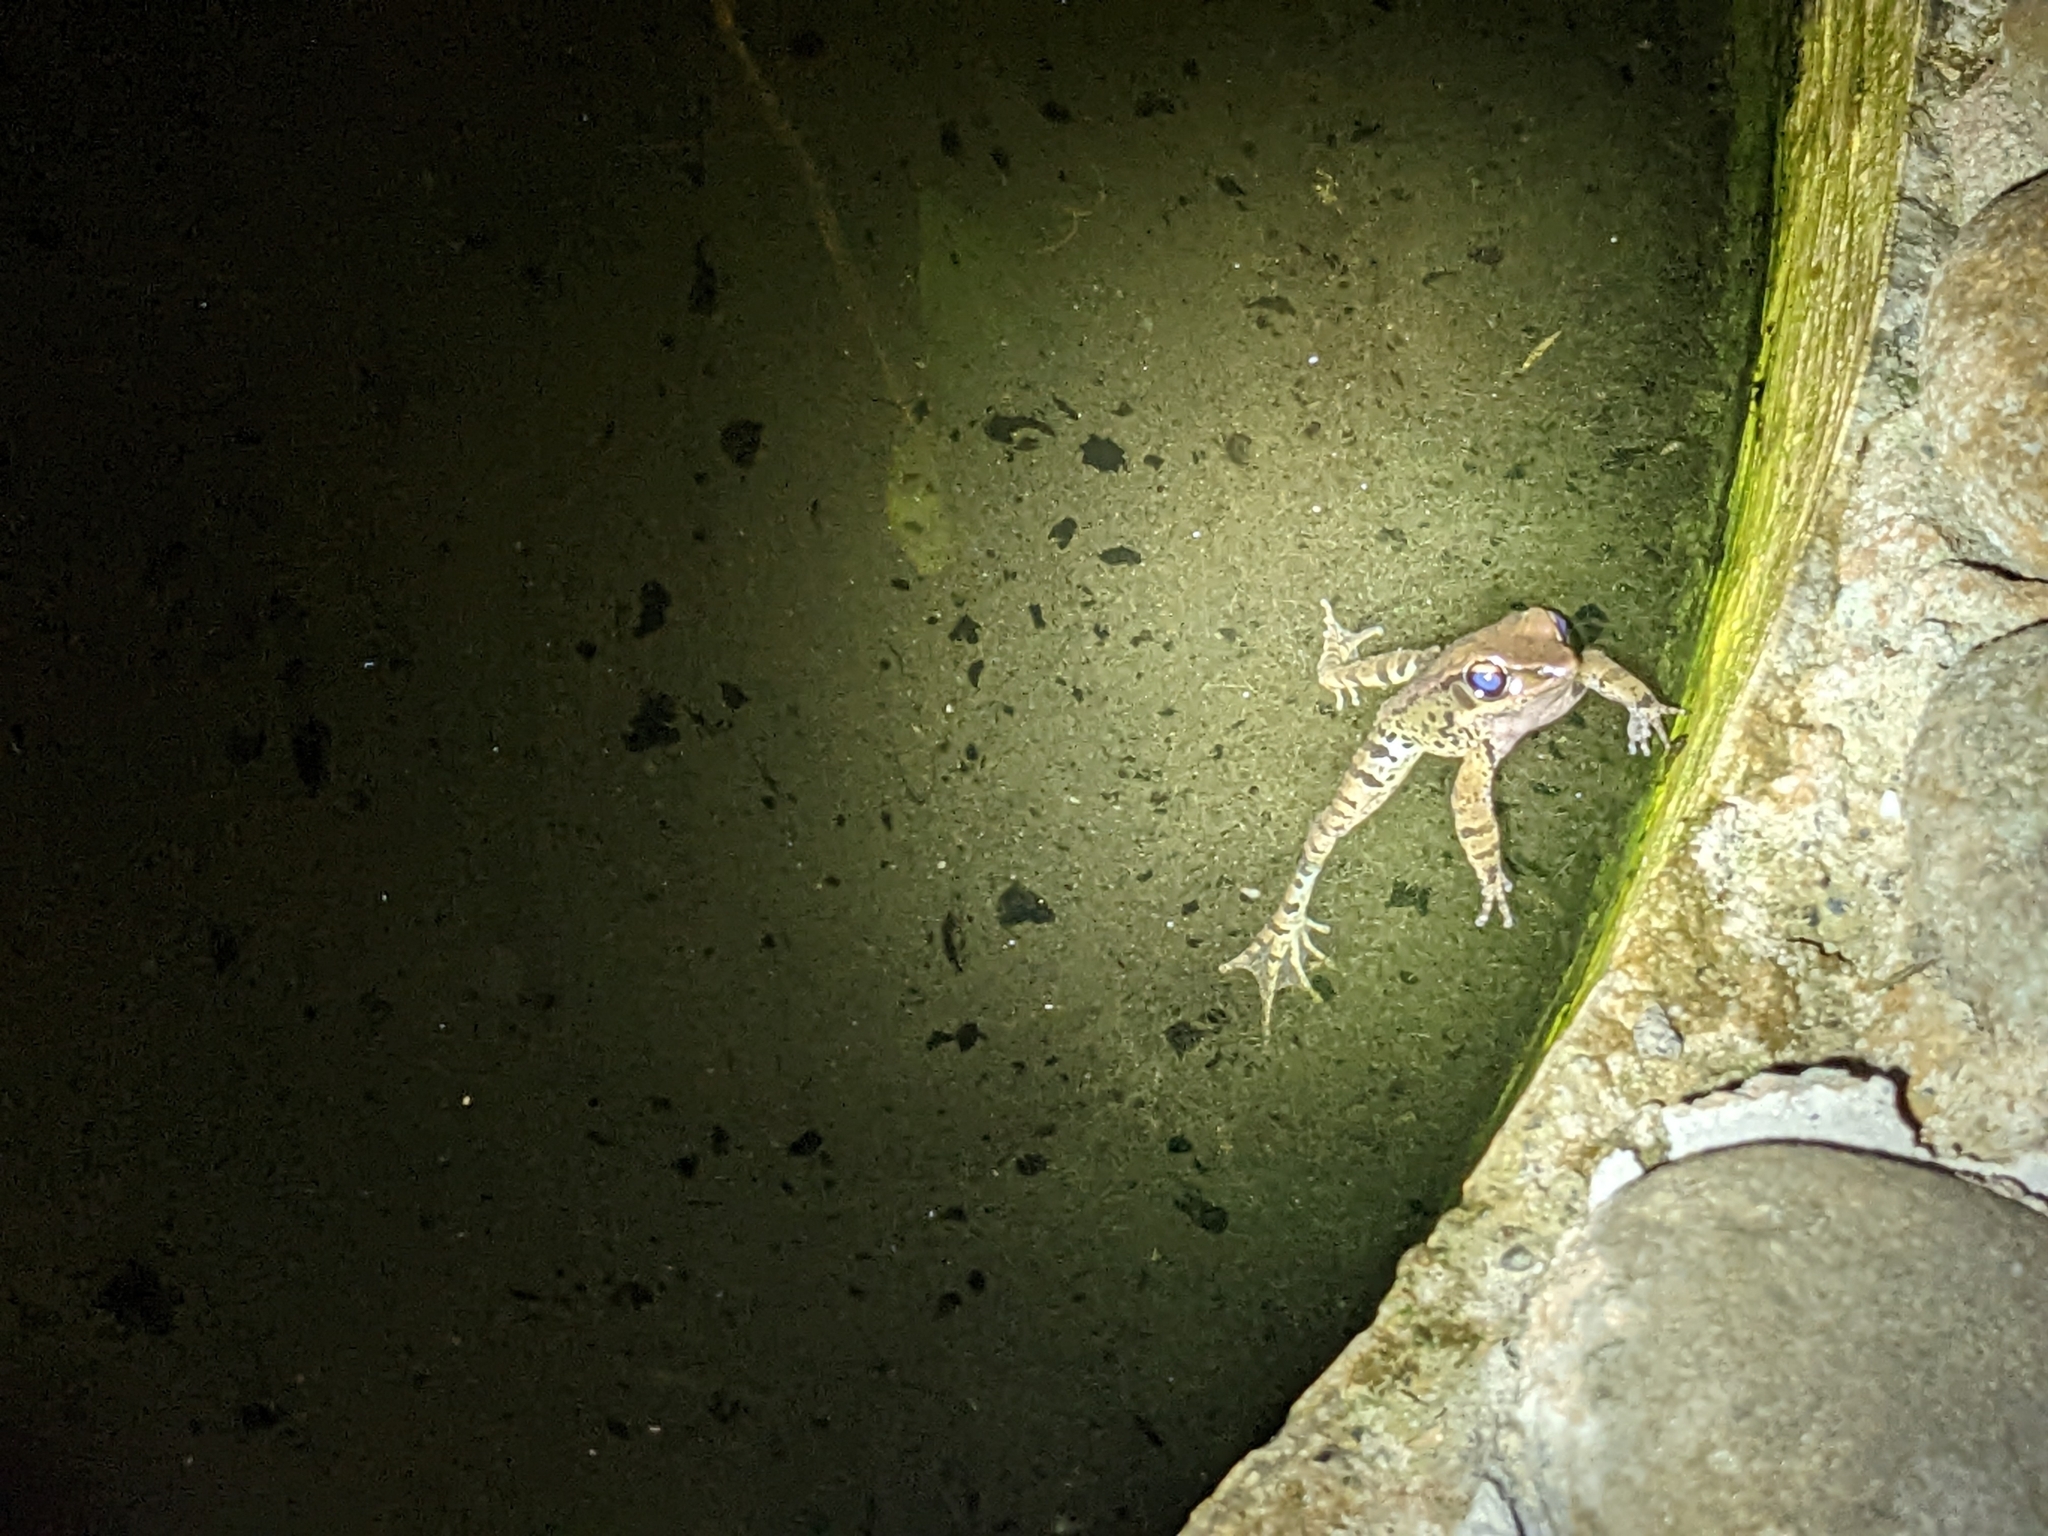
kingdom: Animalia
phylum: Chordata
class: Amphibia
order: Anura
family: Ranidae
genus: Hylarana
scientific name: Hylarana latouchii
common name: Broad-folded frog
